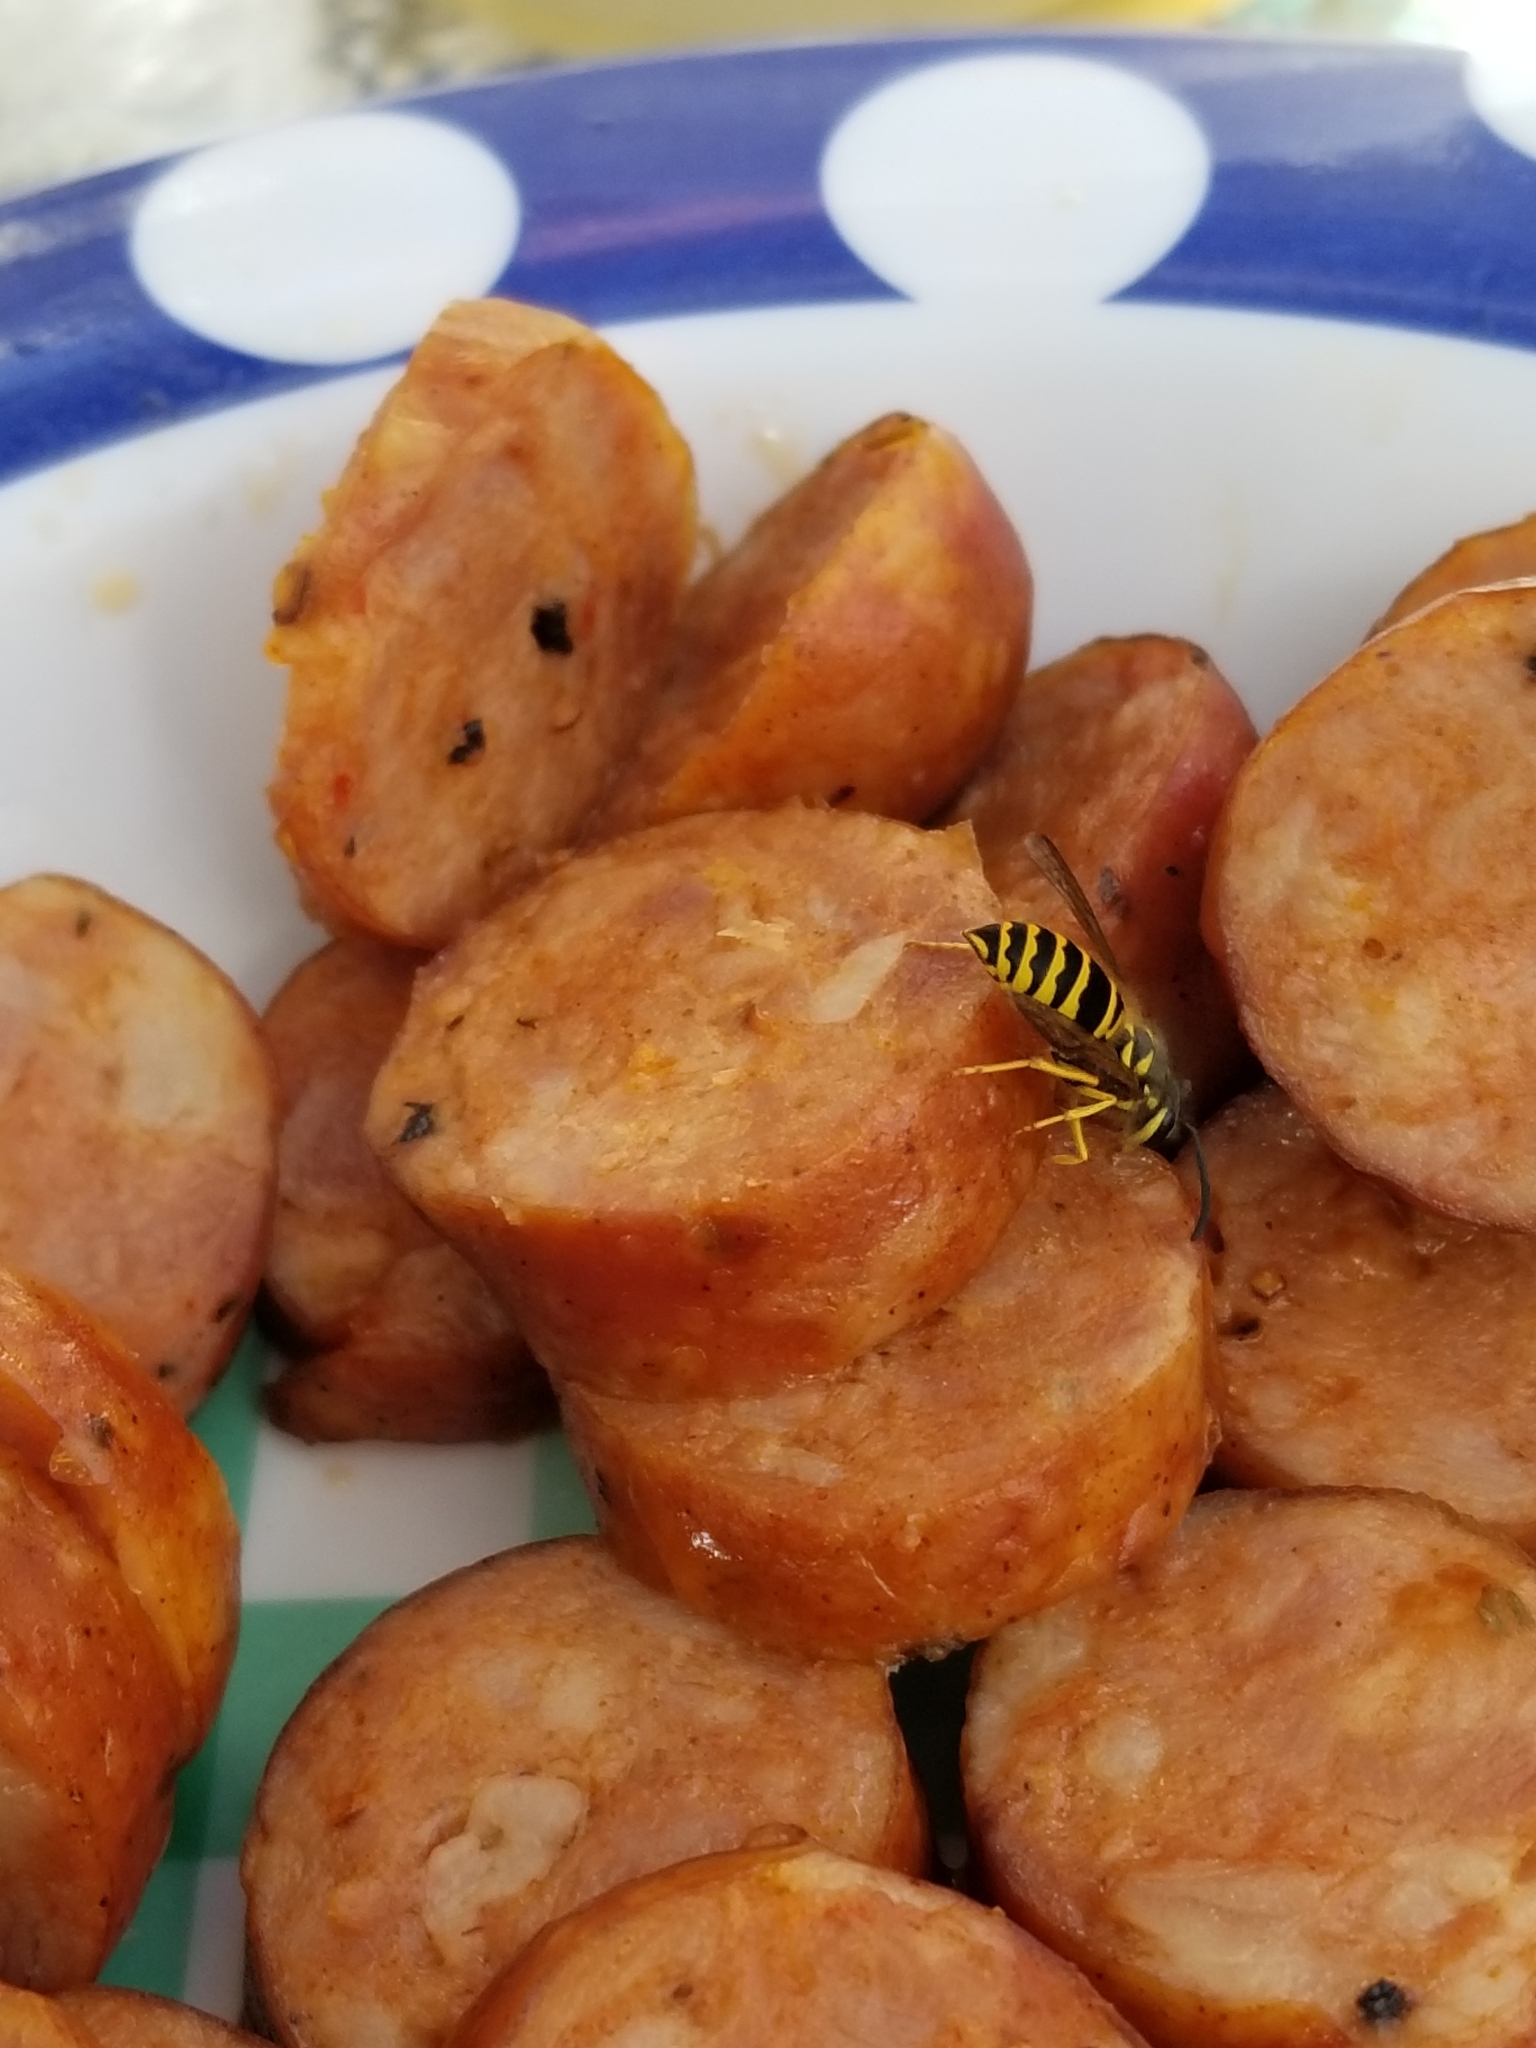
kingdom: Animalia
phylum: Arthropoda
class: Insecta
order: Hymenoptera
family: Vespidae
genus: Vespula
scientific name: Vespula maculifrons
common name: Eastern yellowjacket
